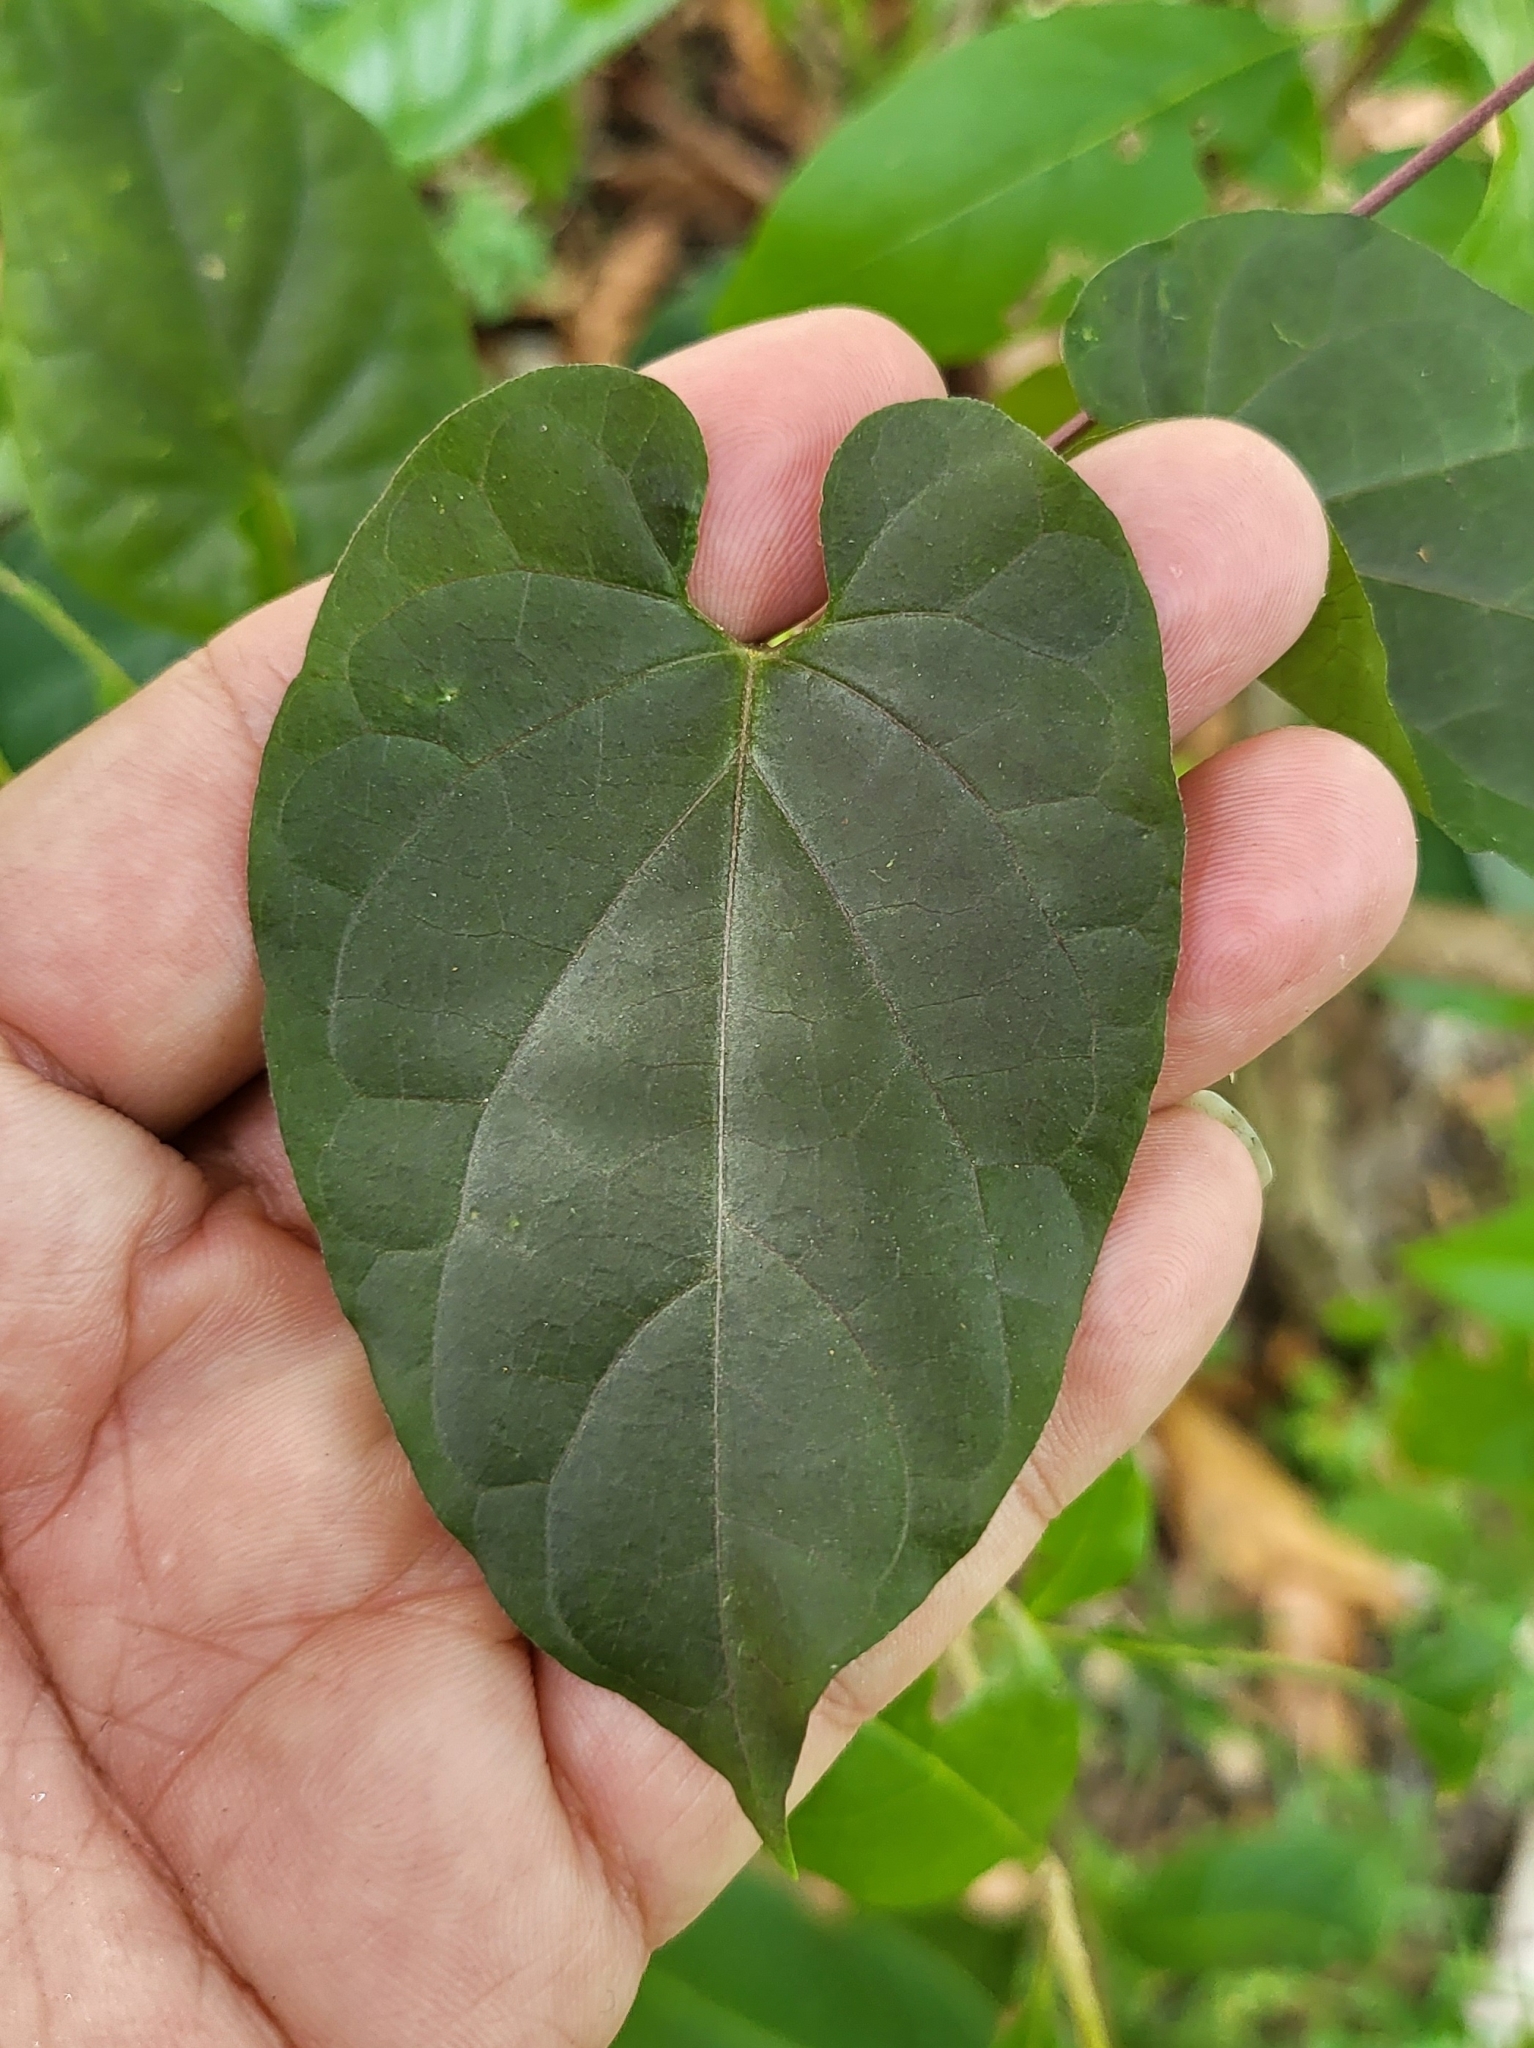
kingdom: Plantae
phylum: Tracheophyta
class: Magnoliopsida
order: Gentianales
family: Apocynaceae
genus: Cynanchum
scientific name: Cynanchum pulchellum
